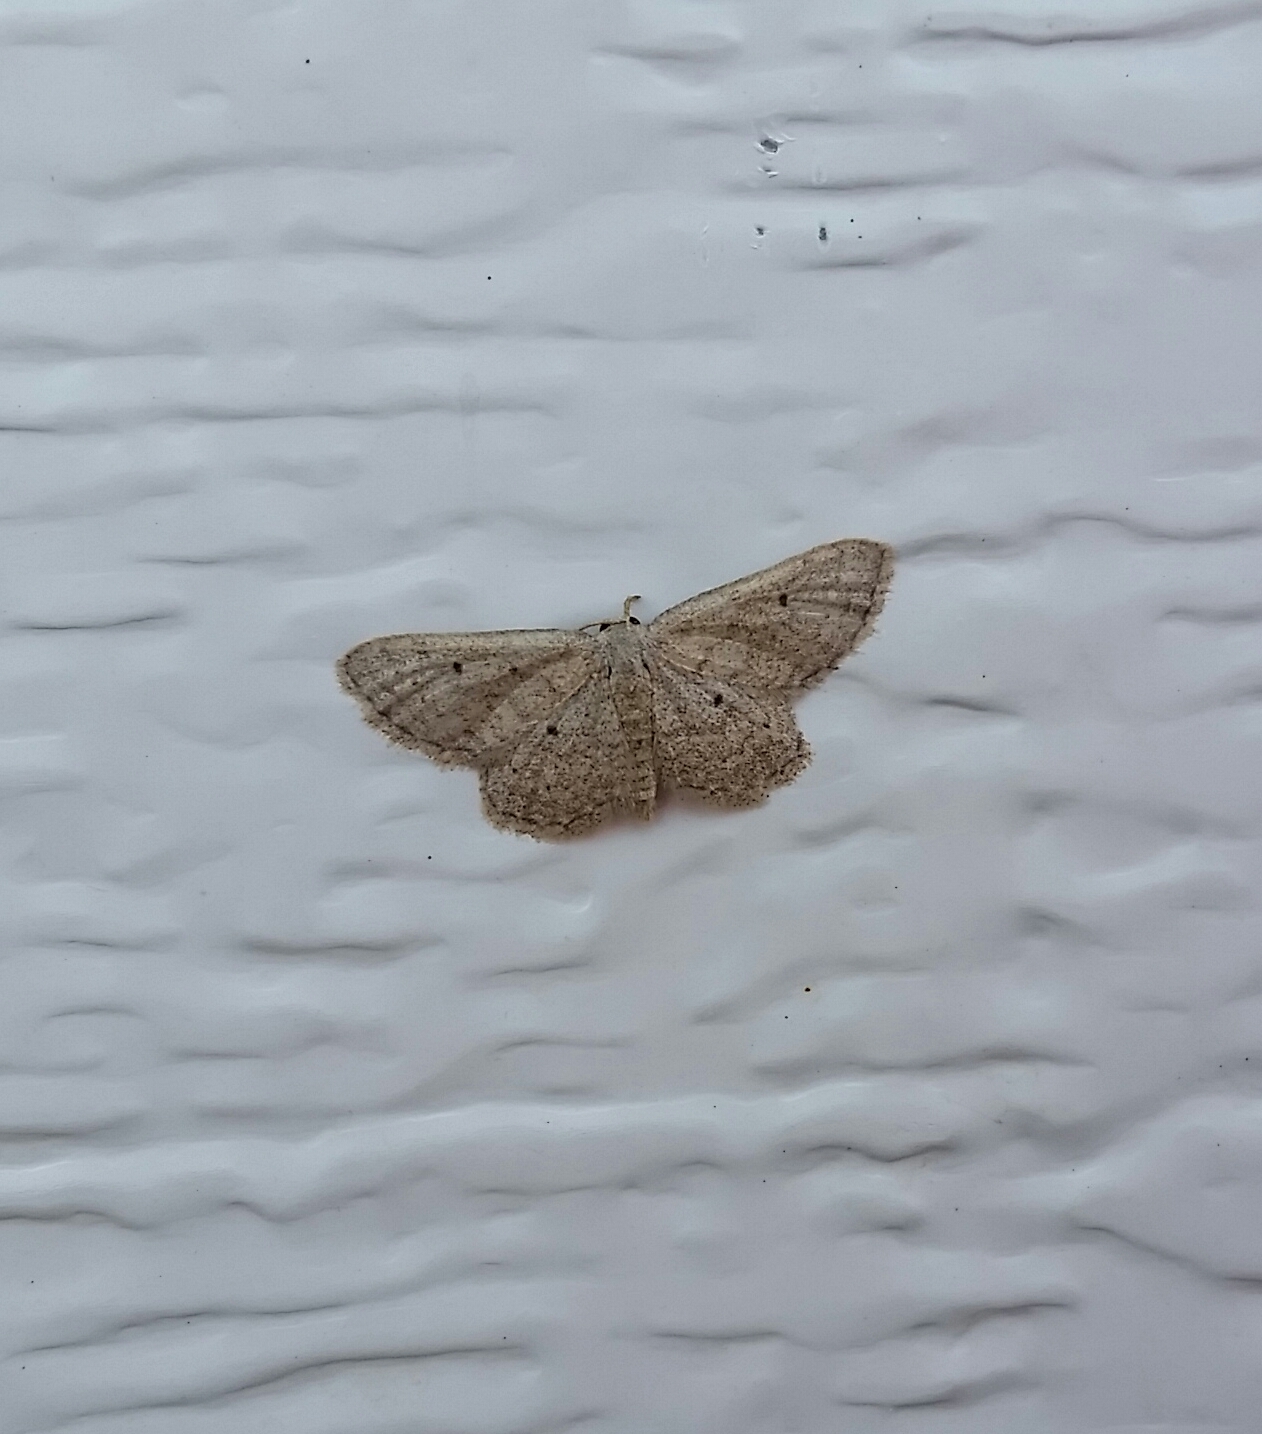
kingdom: Animalia
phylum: Arthropoda
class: Insecta
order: Lepidoptera
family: Geometridae
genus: Lobocleta
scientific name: Lobocleta ossularia
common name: Drab brown wave
